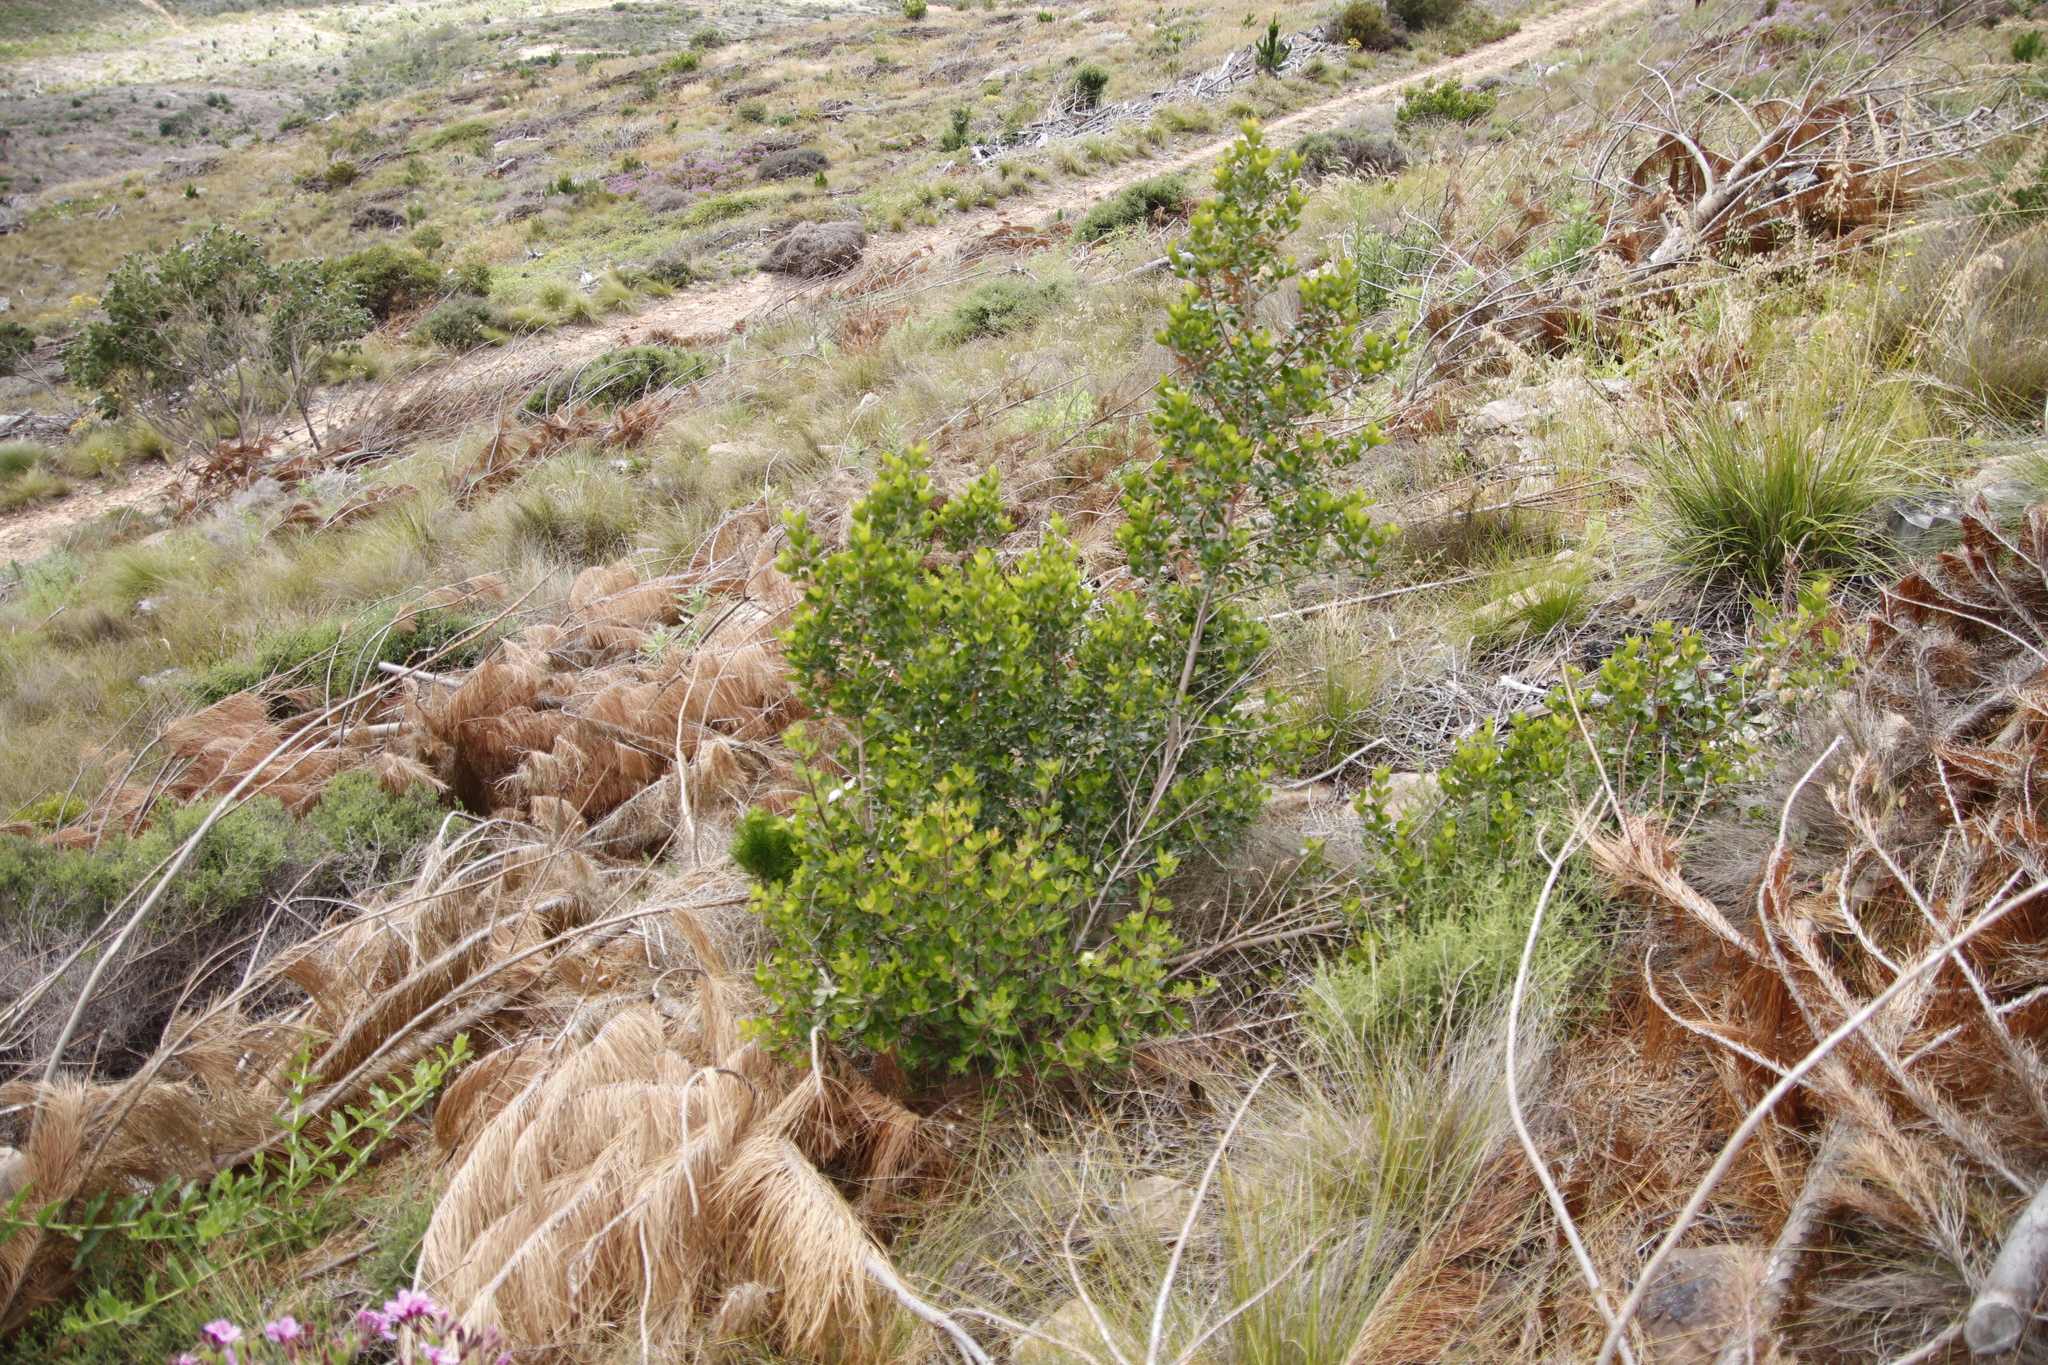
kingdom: Plantae
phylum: Tracheophyta
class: Magnoliopsida
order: Sapindales
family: Anacardiaceae
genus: Searsia
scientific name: Searsia lucida
